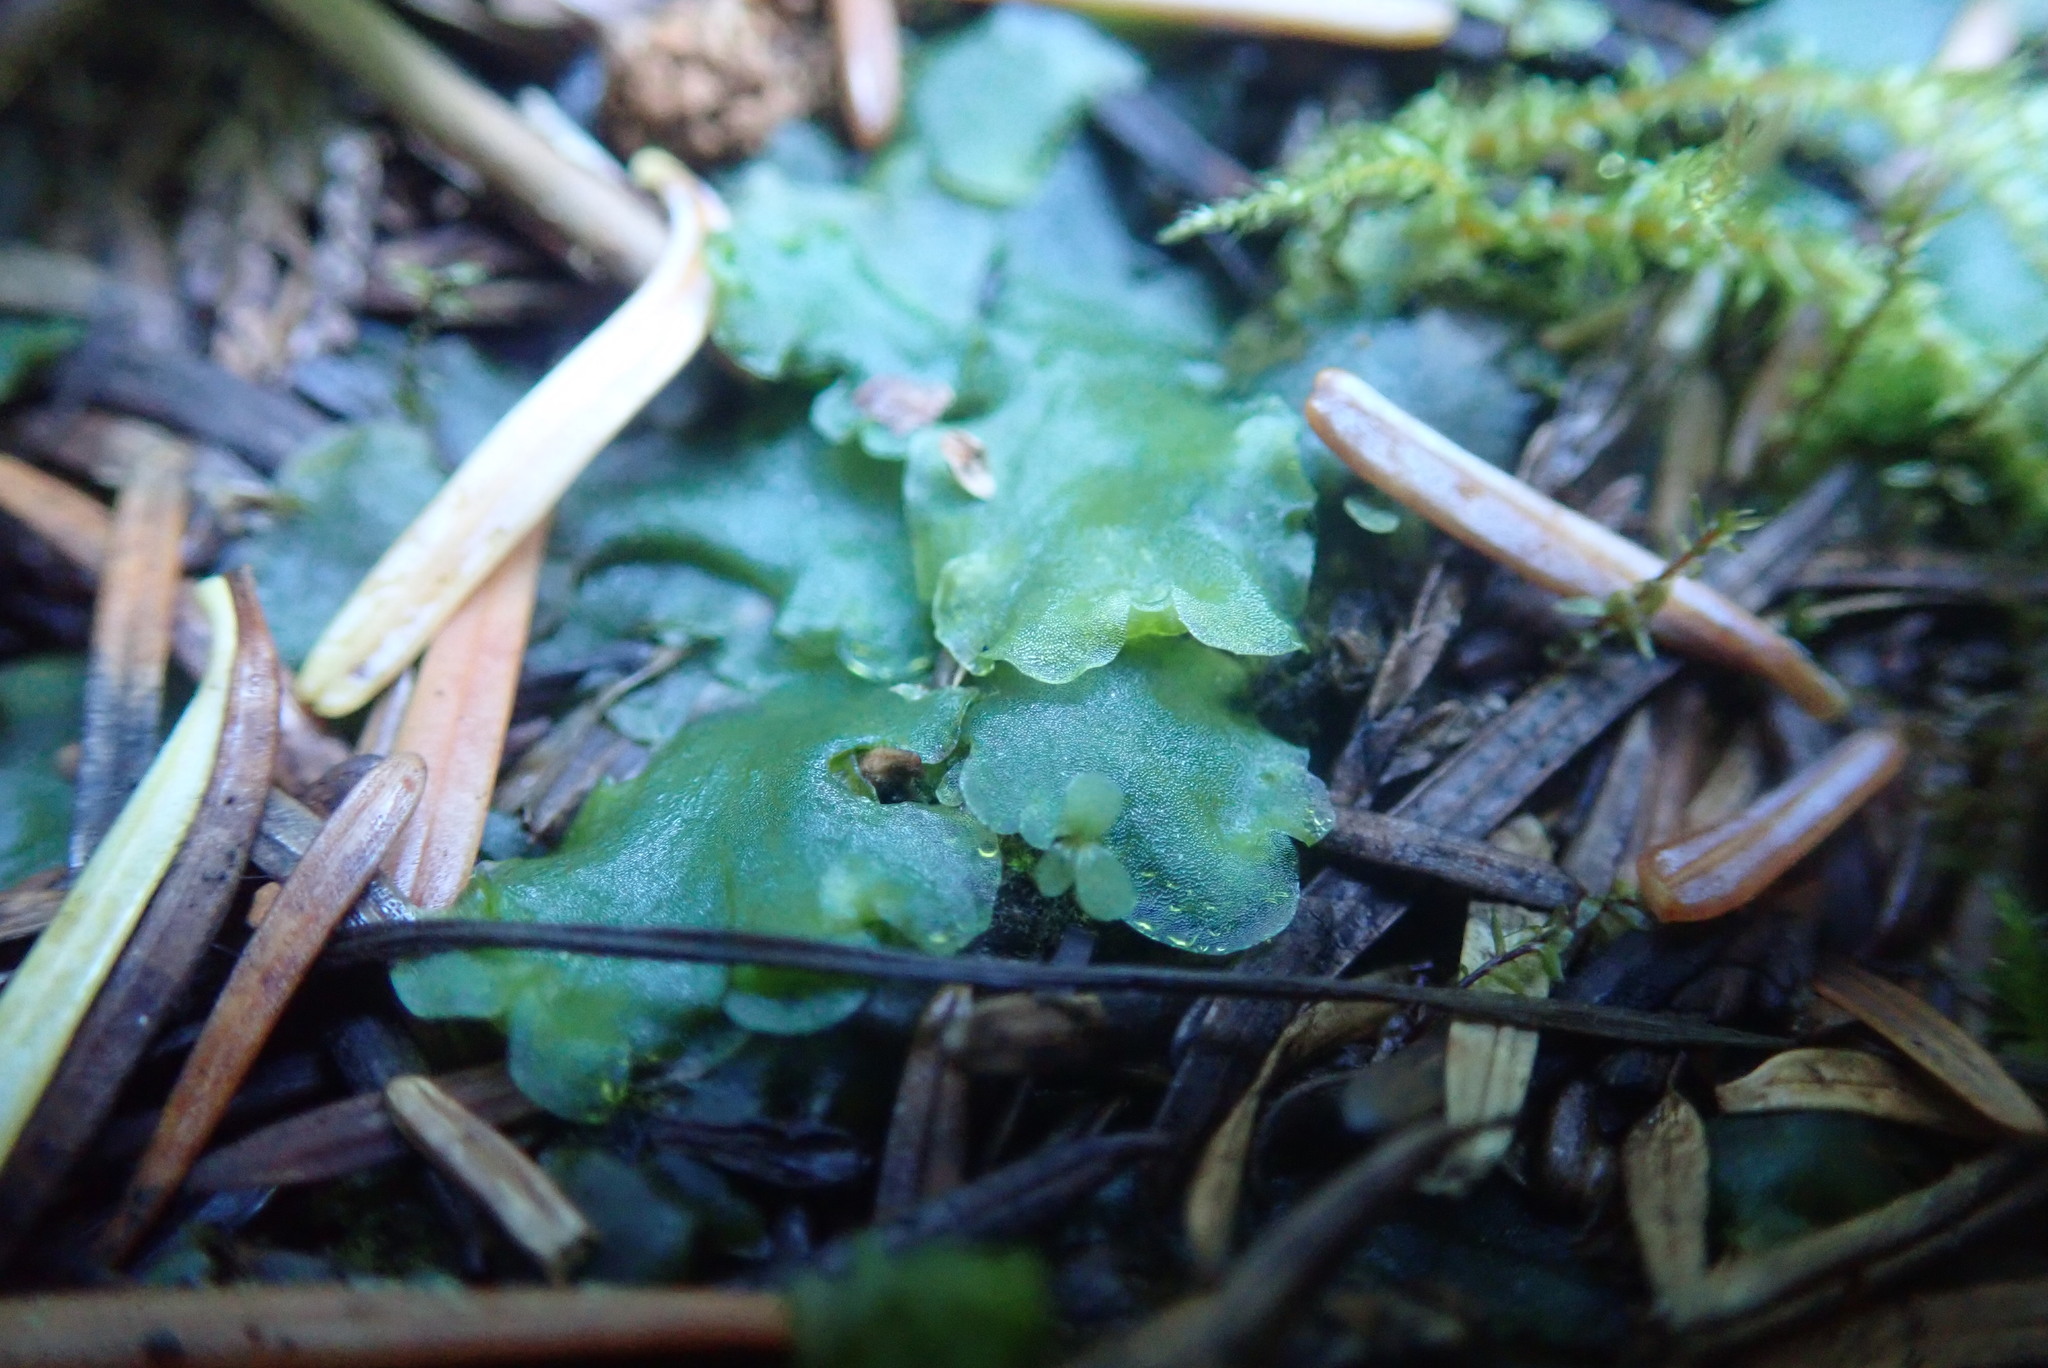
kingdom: Plantae
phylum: Marchantiophyta
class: Jungermanniopsida
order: Pelliales
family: Pelliaceae
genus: Pellia
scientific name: Pellia neesiana
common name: Nees  pellia
